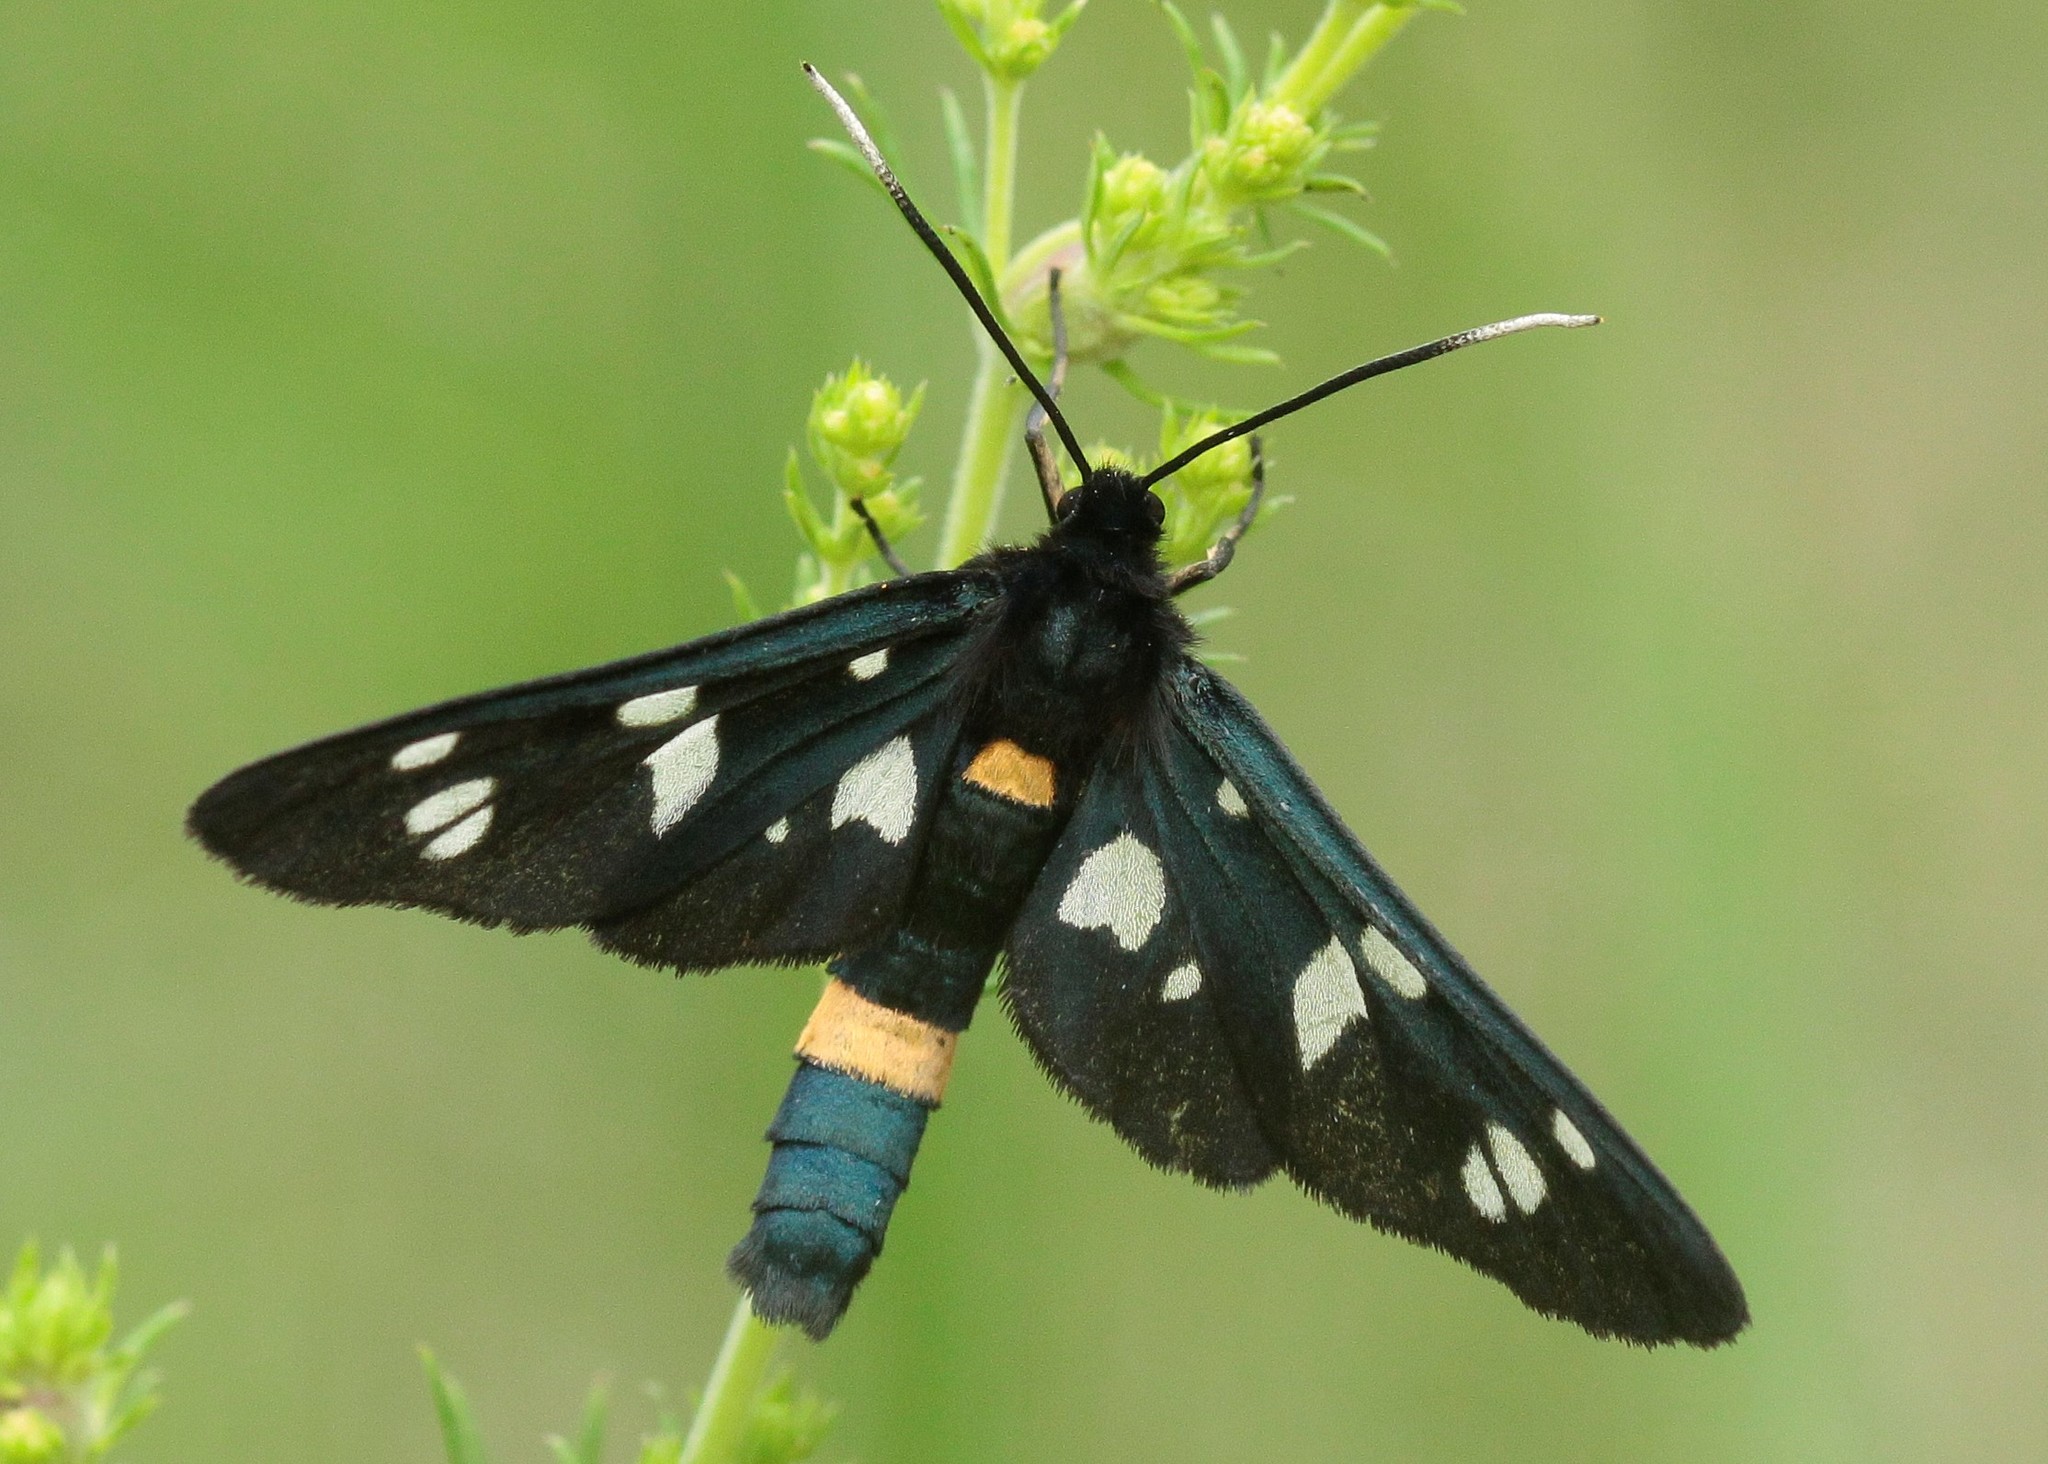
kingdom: Animalia
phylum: Arthropoda
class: Insecta
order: Lepidoptera
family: Erebidae
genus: Amata
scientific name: Amata nigricornis
